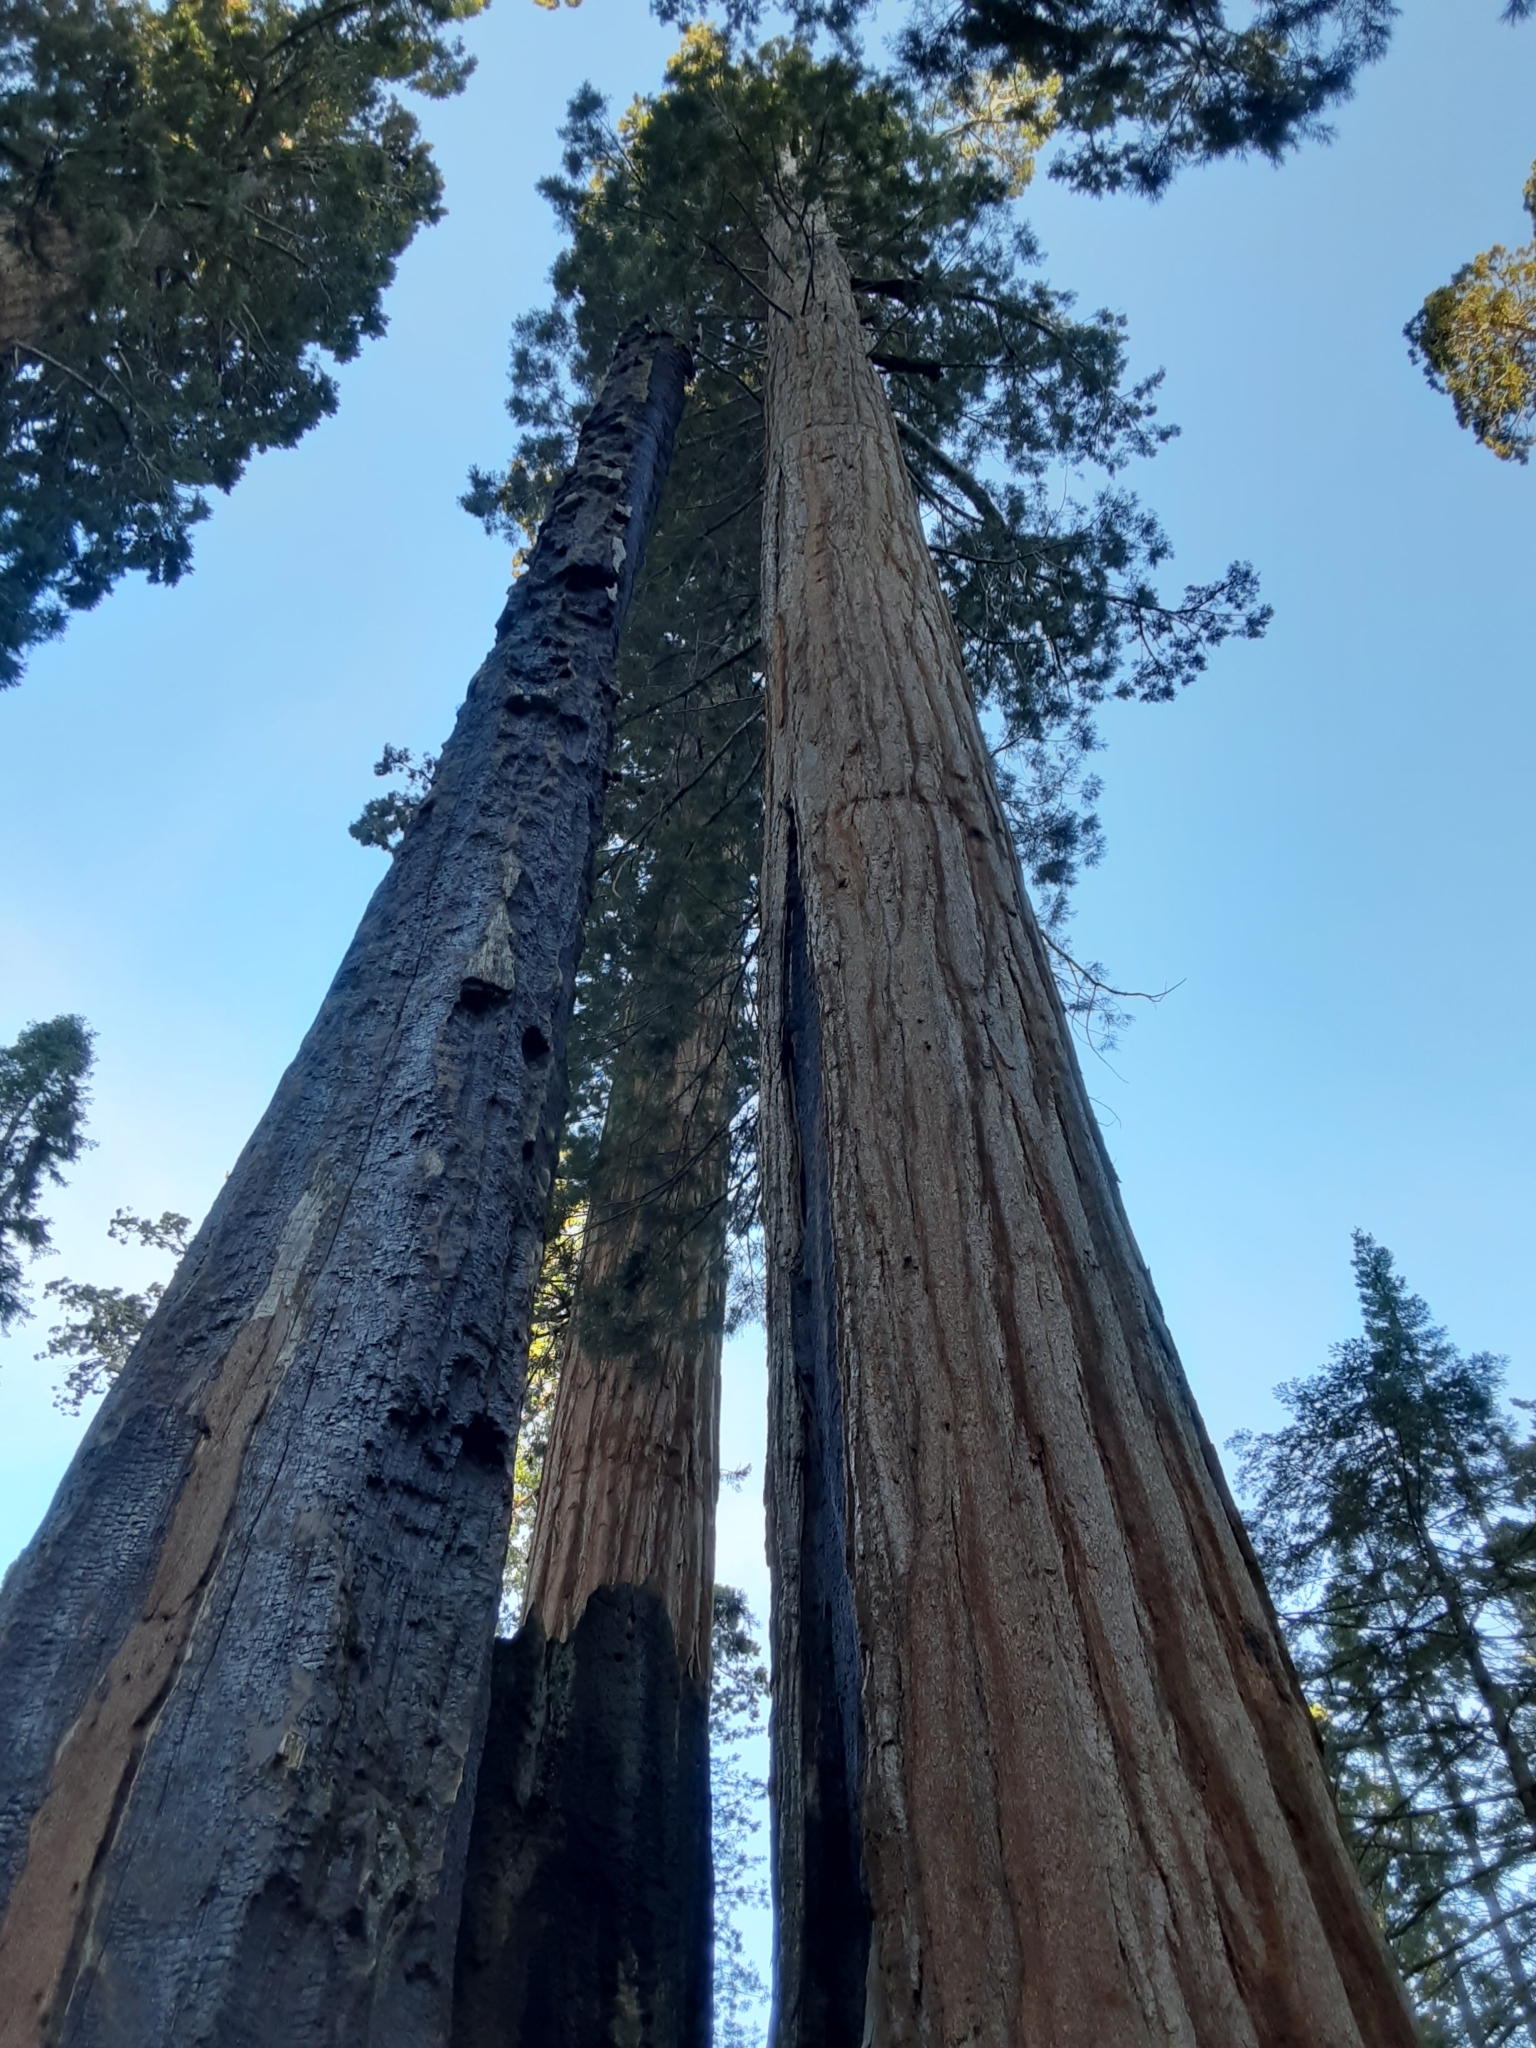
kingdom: Plantae
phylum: Tracheophyta
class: Pinopsida
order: Pinales
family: Cupressaceae
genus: Sequoiadendron
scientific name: Sequoiadendron giganteum
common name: Wellingtonia
